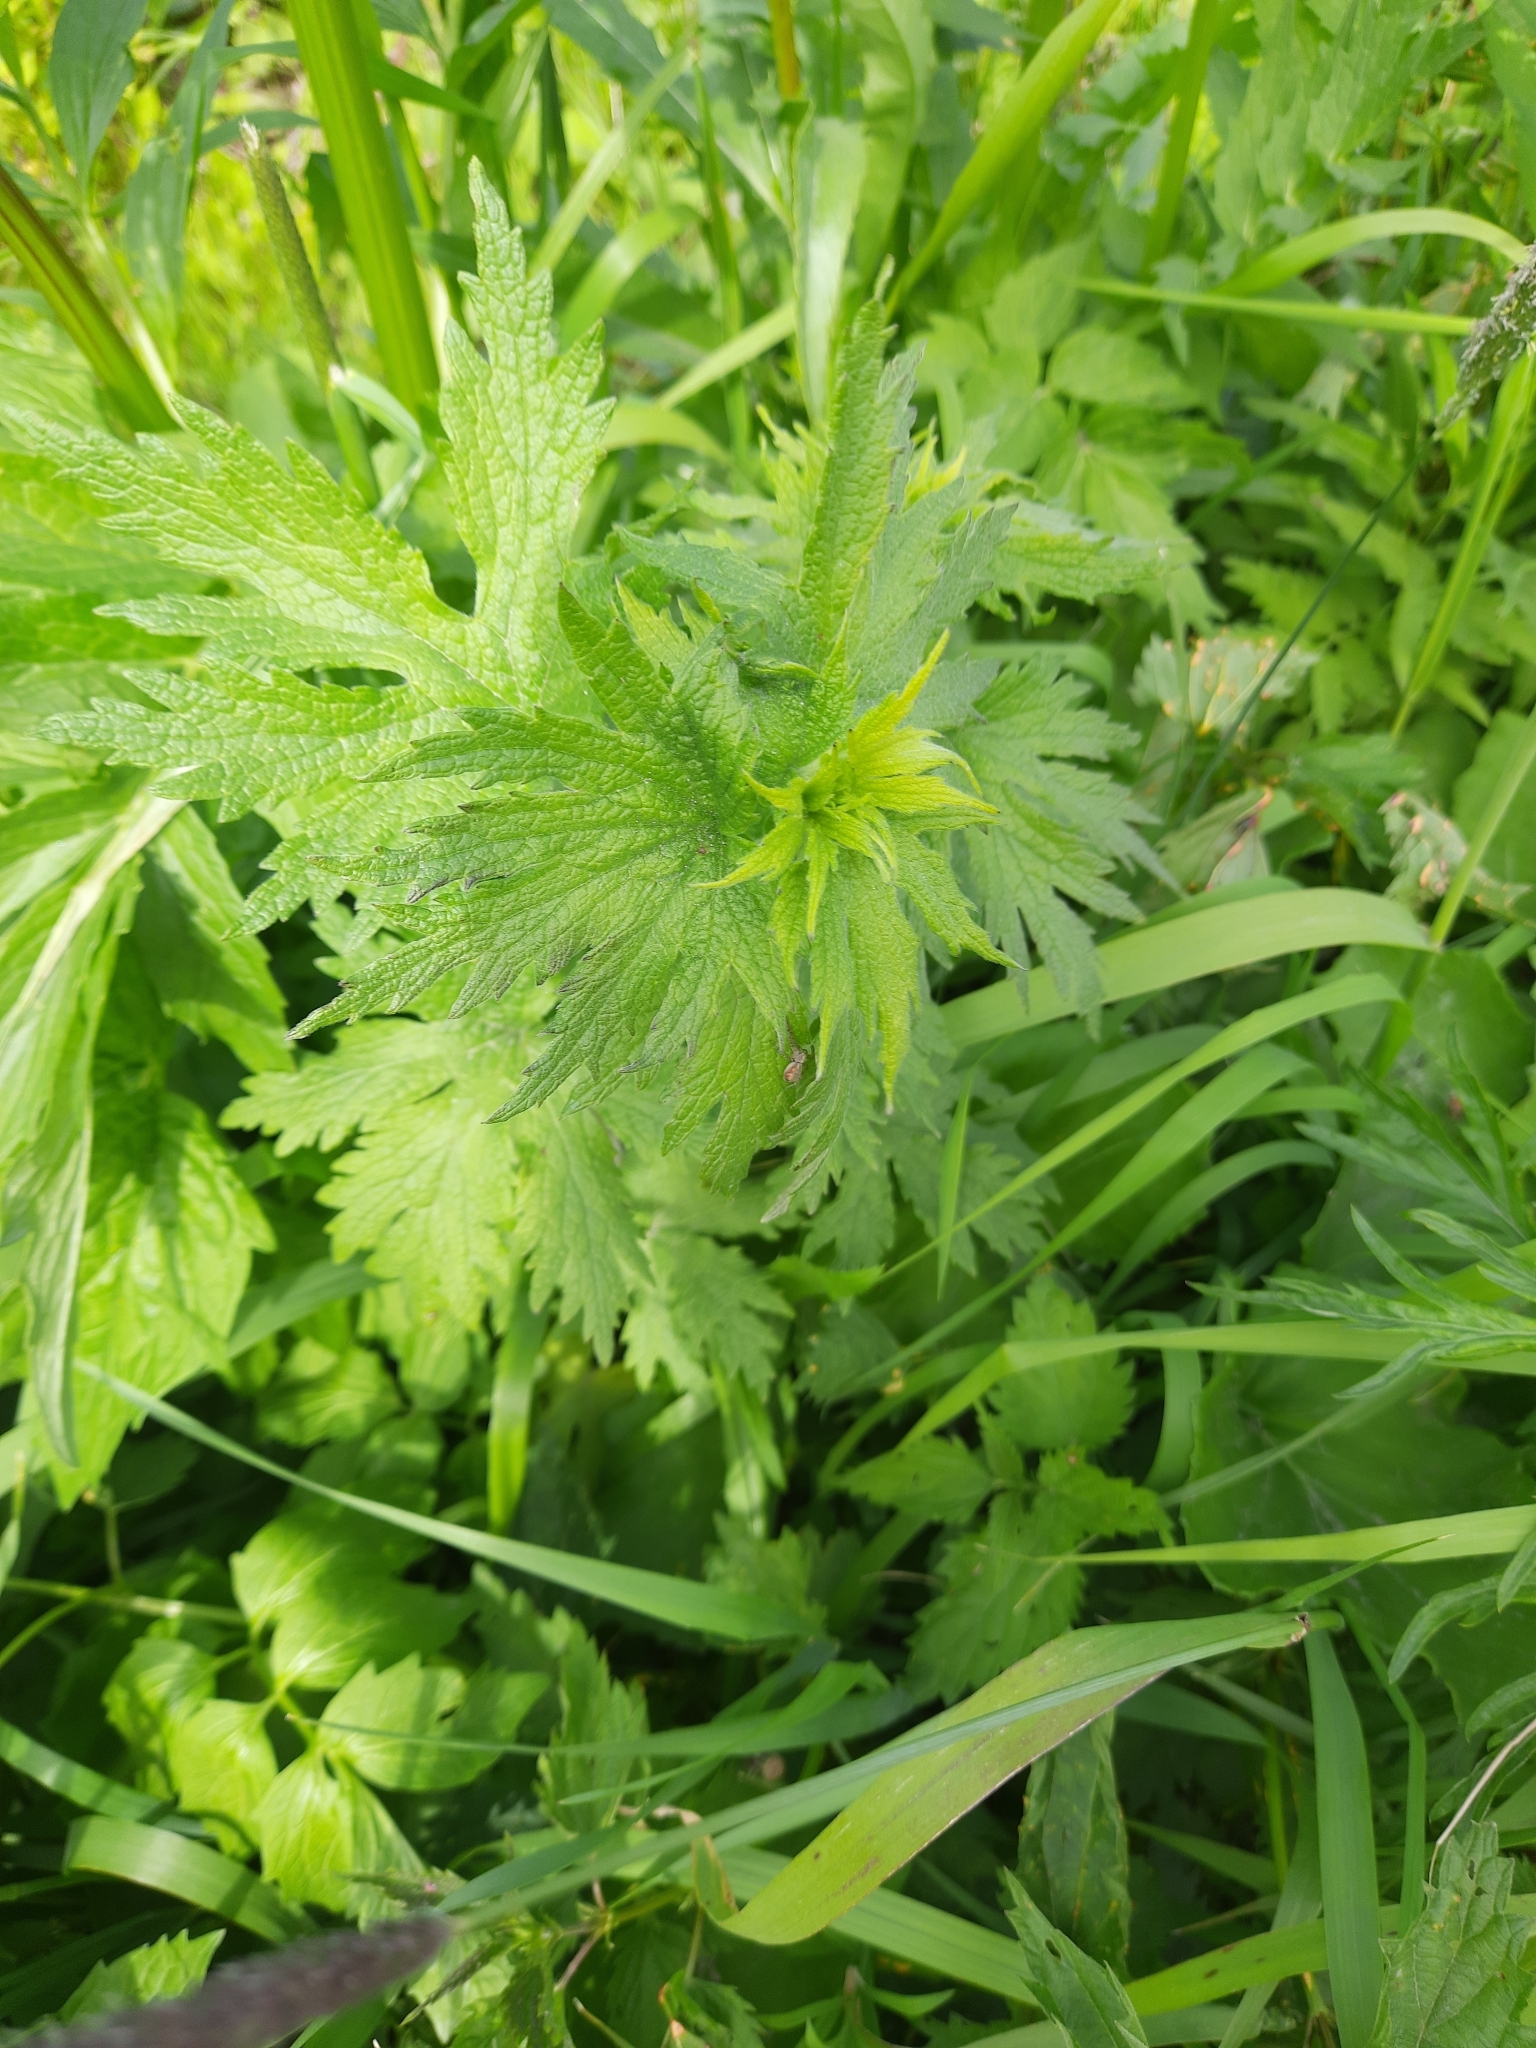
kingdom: Plantae
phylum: Tracheophyta
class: Magnoliopsida
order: Lamiales
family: Lamiaceae
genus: Leonurus
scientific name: Leonurus quinquelobatus
